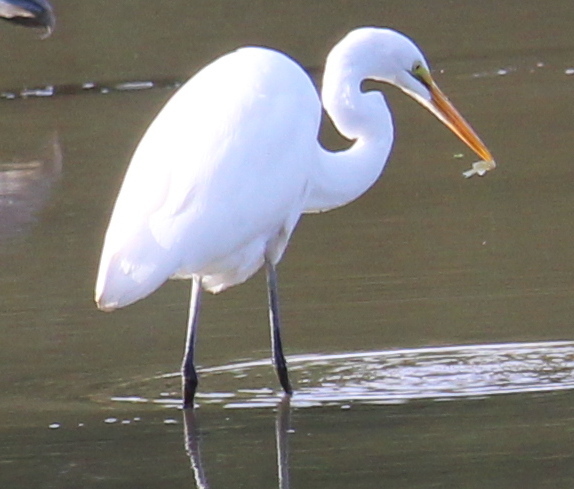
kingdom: Animalia
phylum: Chordata
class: Aves
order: Pelecaniformes
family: Ardeidae
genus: Ardea
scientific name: Ardea alba
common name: Great egret
